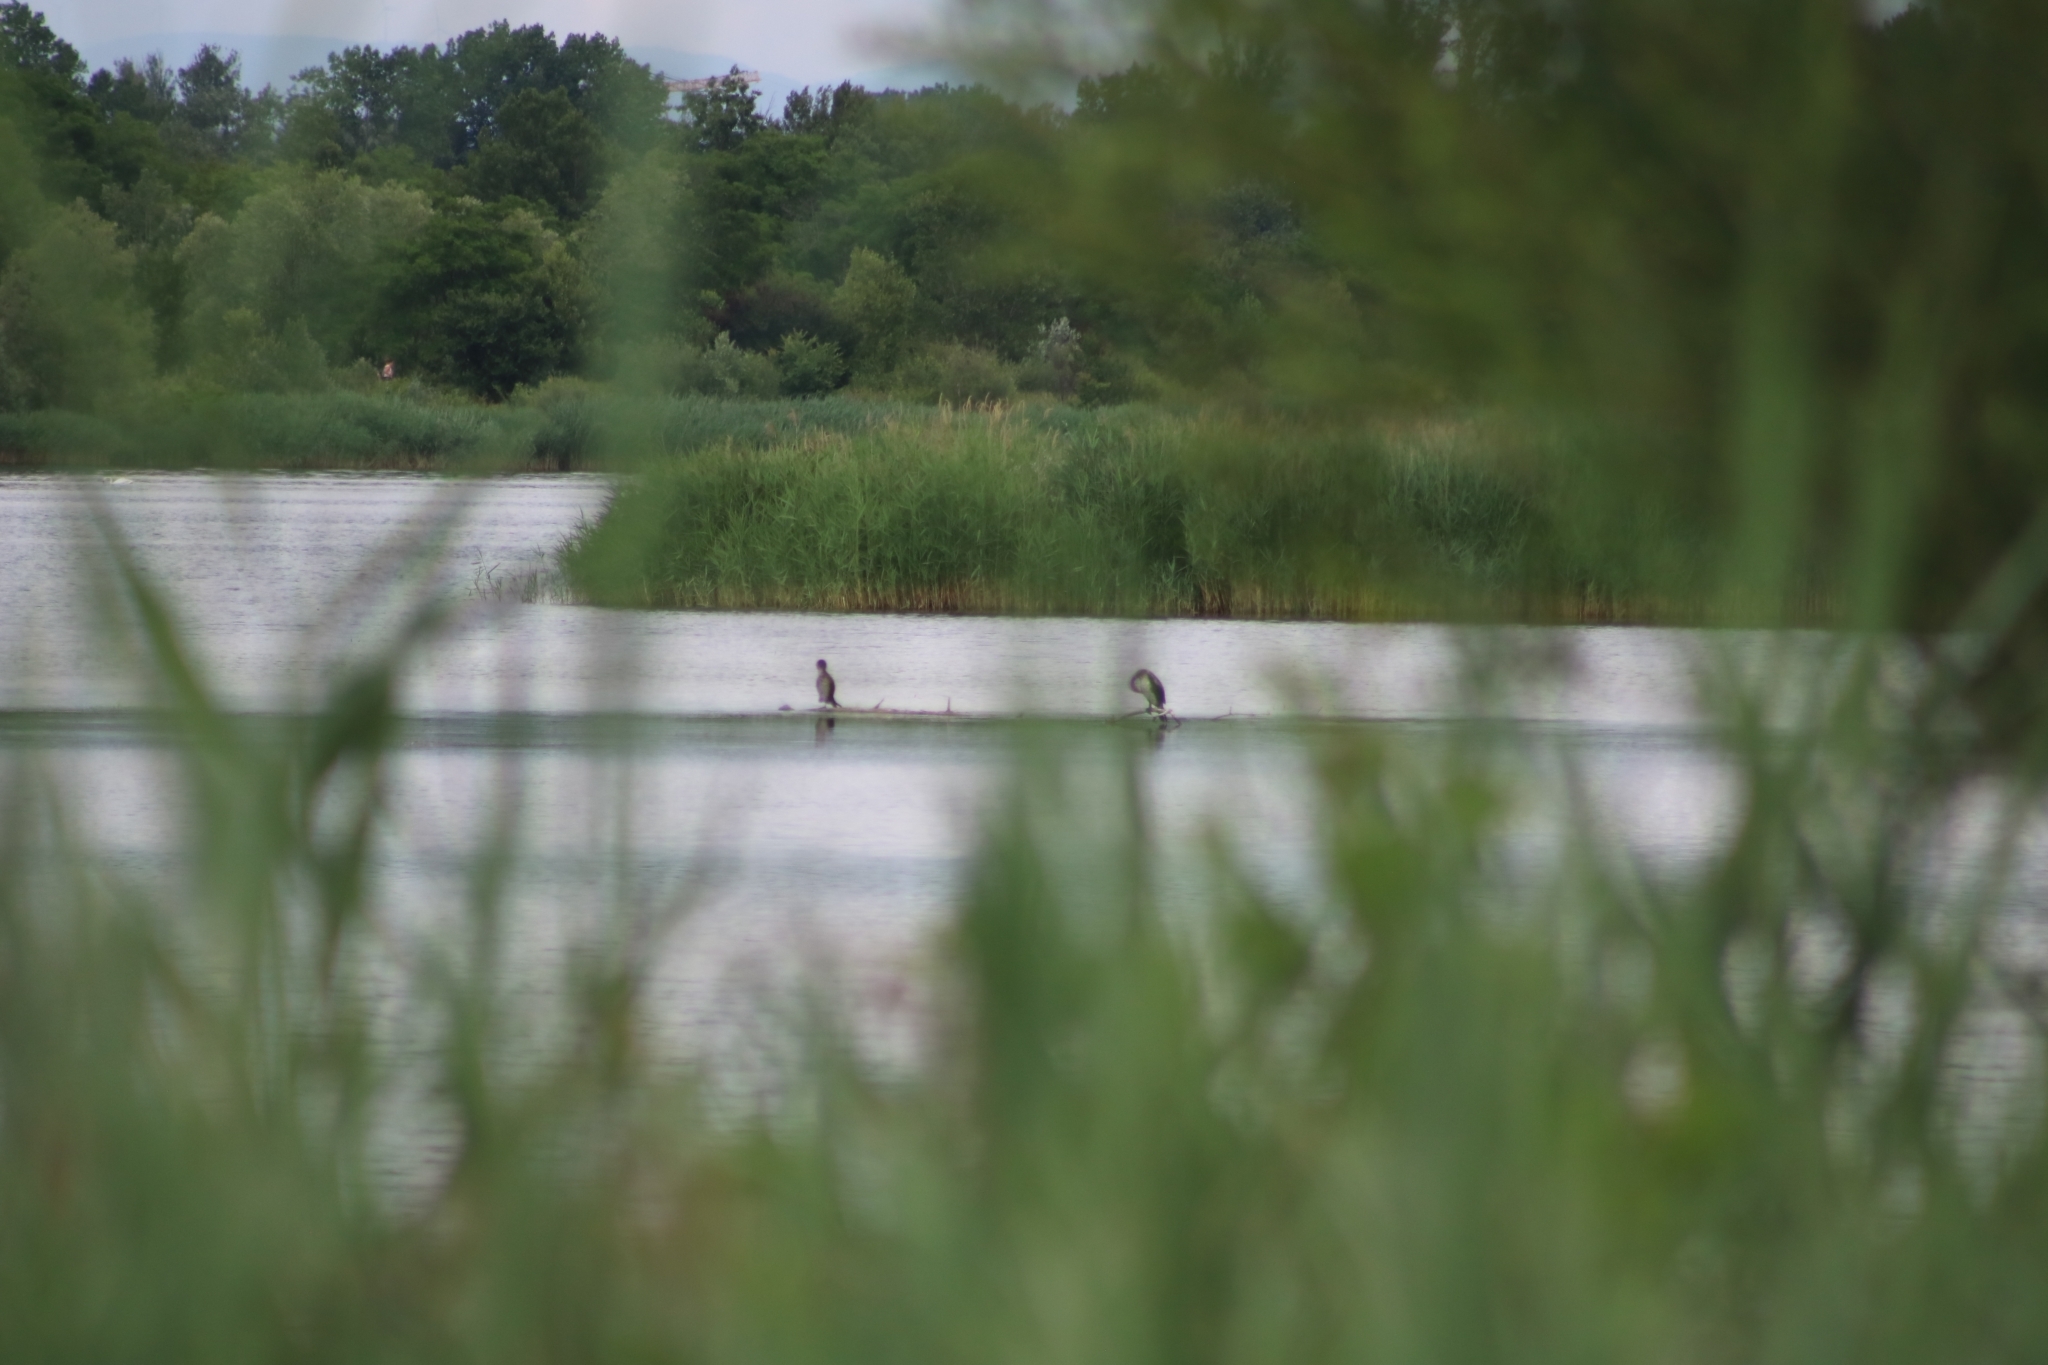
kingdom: Animalia
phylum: Chordata
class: Aves
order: Suliformes
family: Phalacrocoracidae
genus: Phalacrocorax
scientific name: Phalacrocorax carbo
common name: Great cormorant
